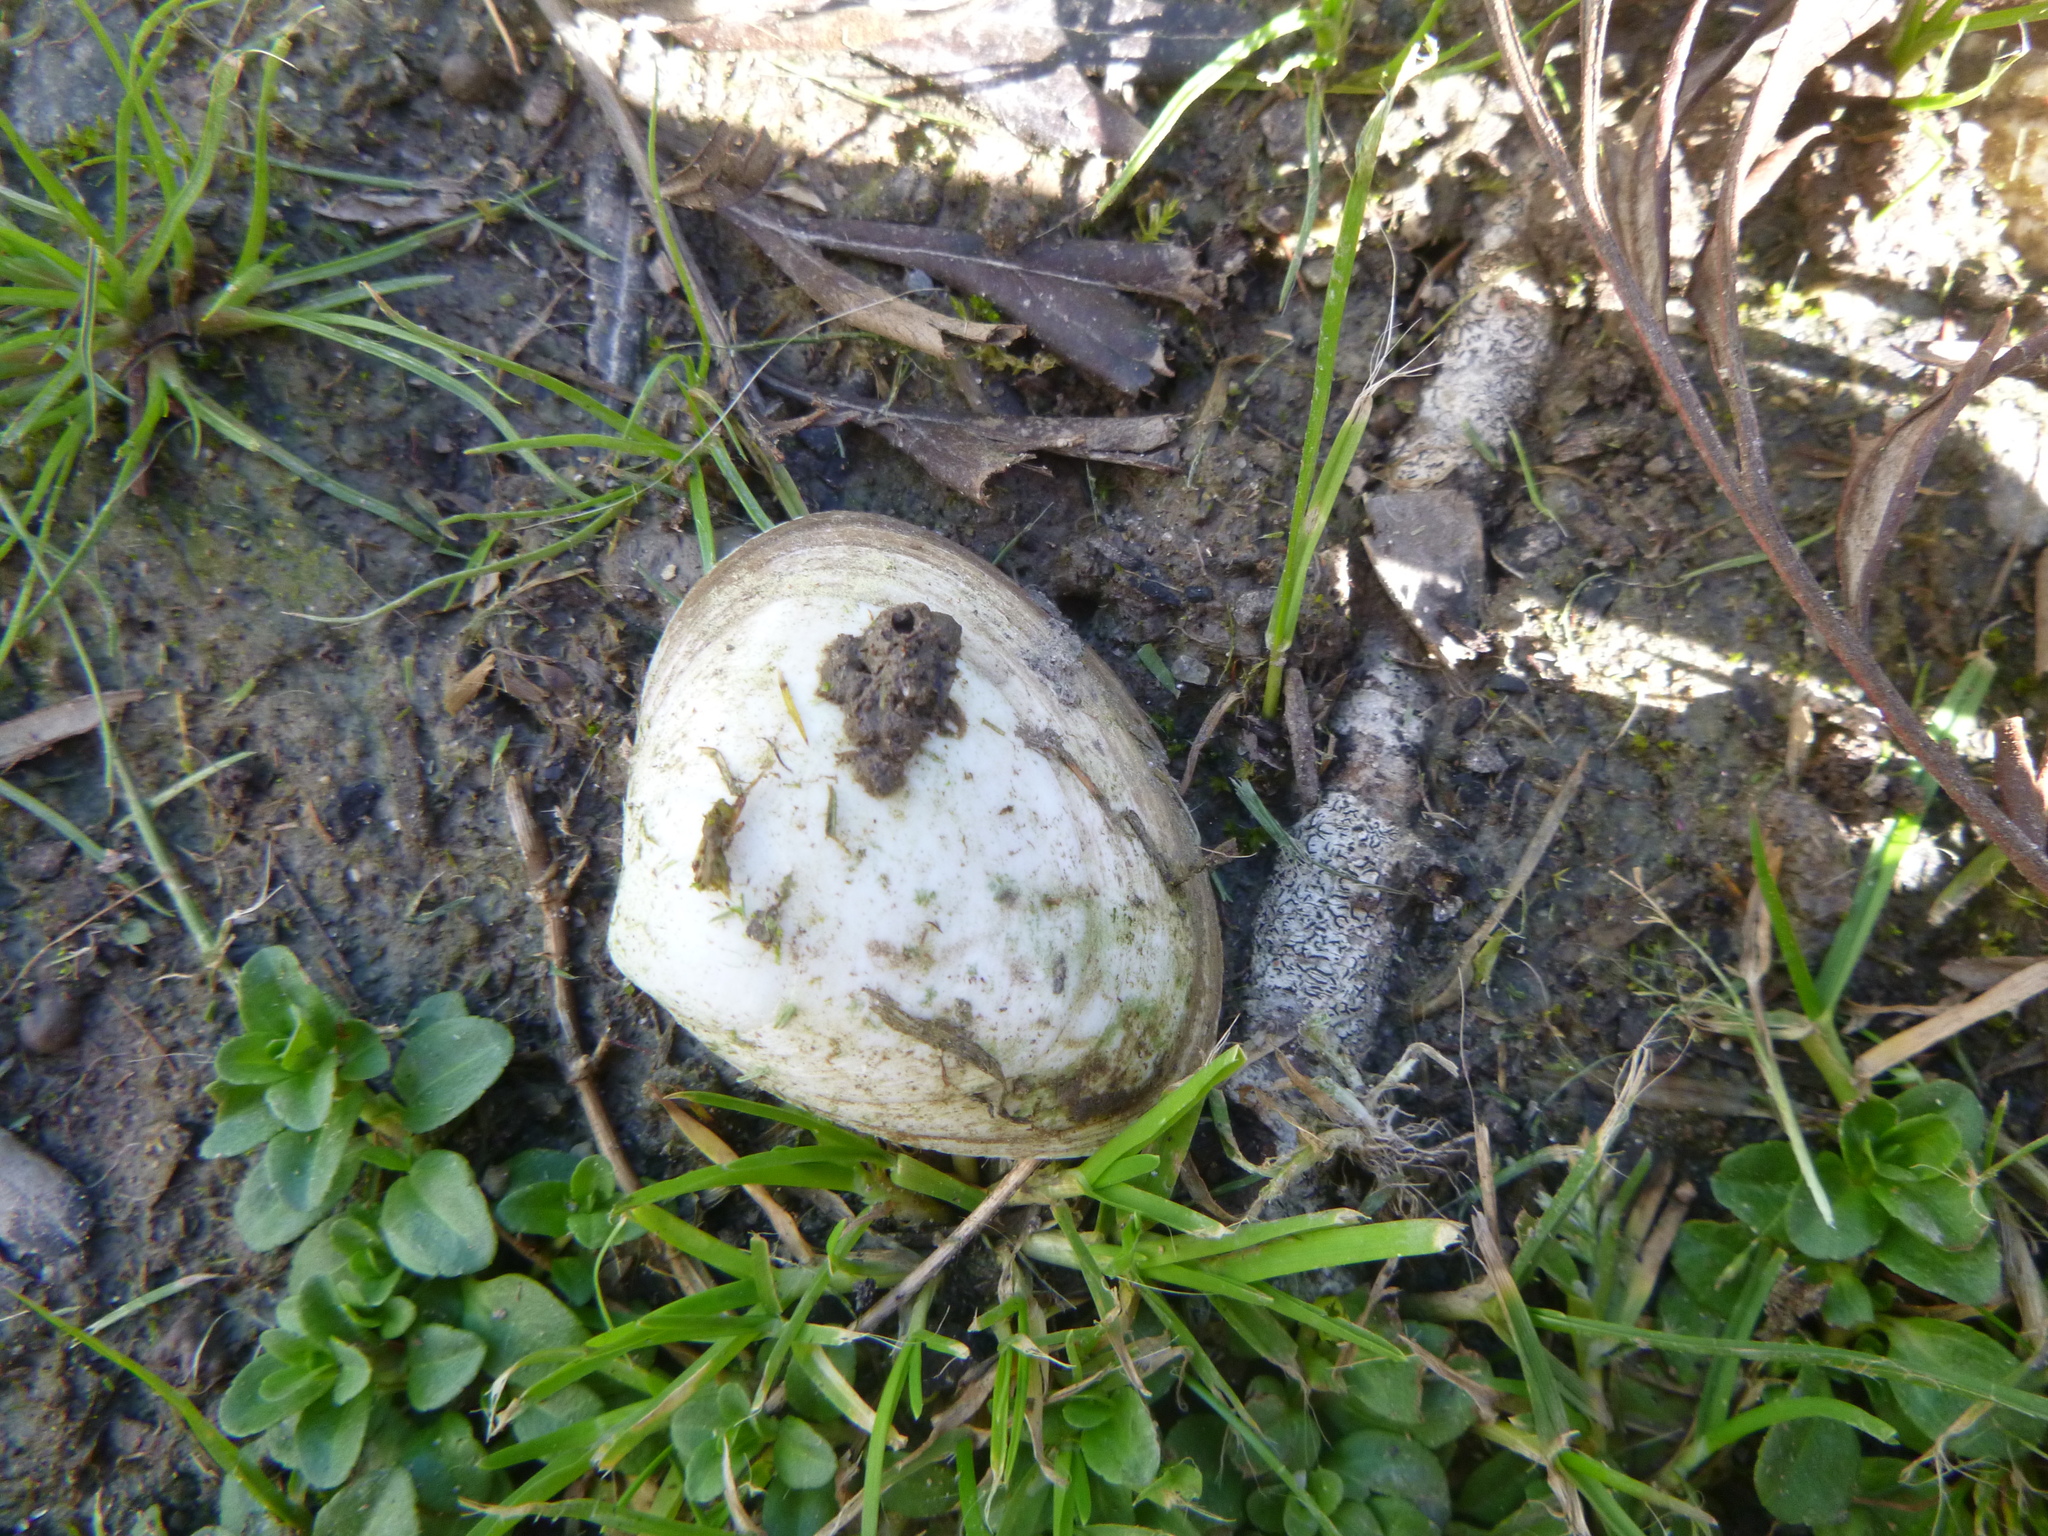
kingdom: Animalia
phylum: Mollusca
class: Bivalvia
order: Venerida
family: Mactridae
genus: Spisula
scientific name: Spisula discors
